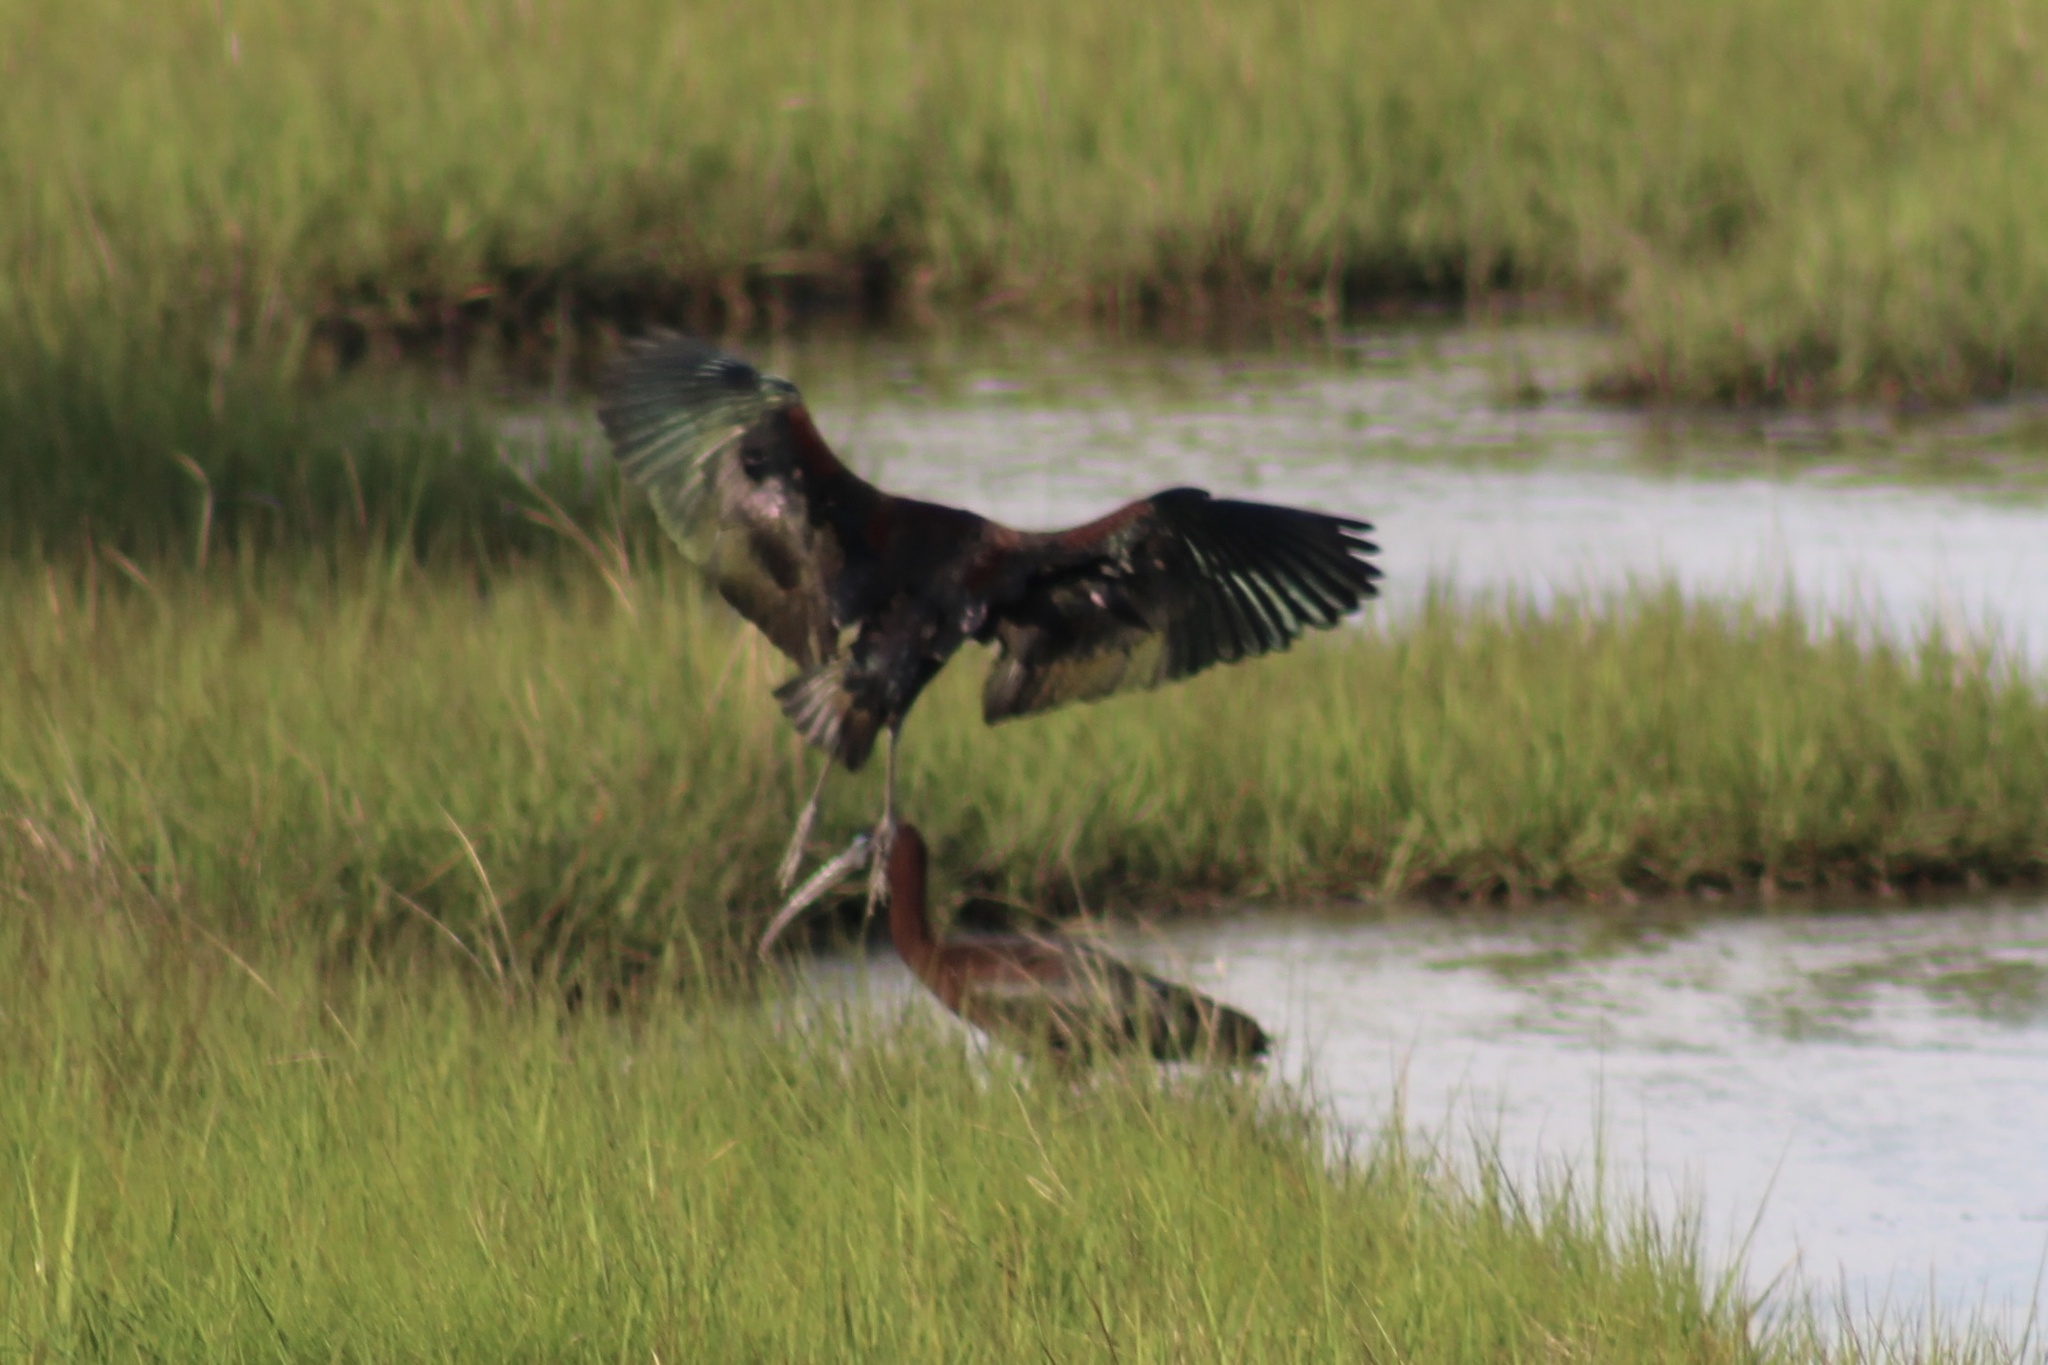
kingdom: Animalia
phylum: Chordata
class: Aves
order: Pelecaniformes
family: Threskiornithidae
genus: Plegadis
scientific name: Plegadis falcinellus
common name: Glossy ibis
